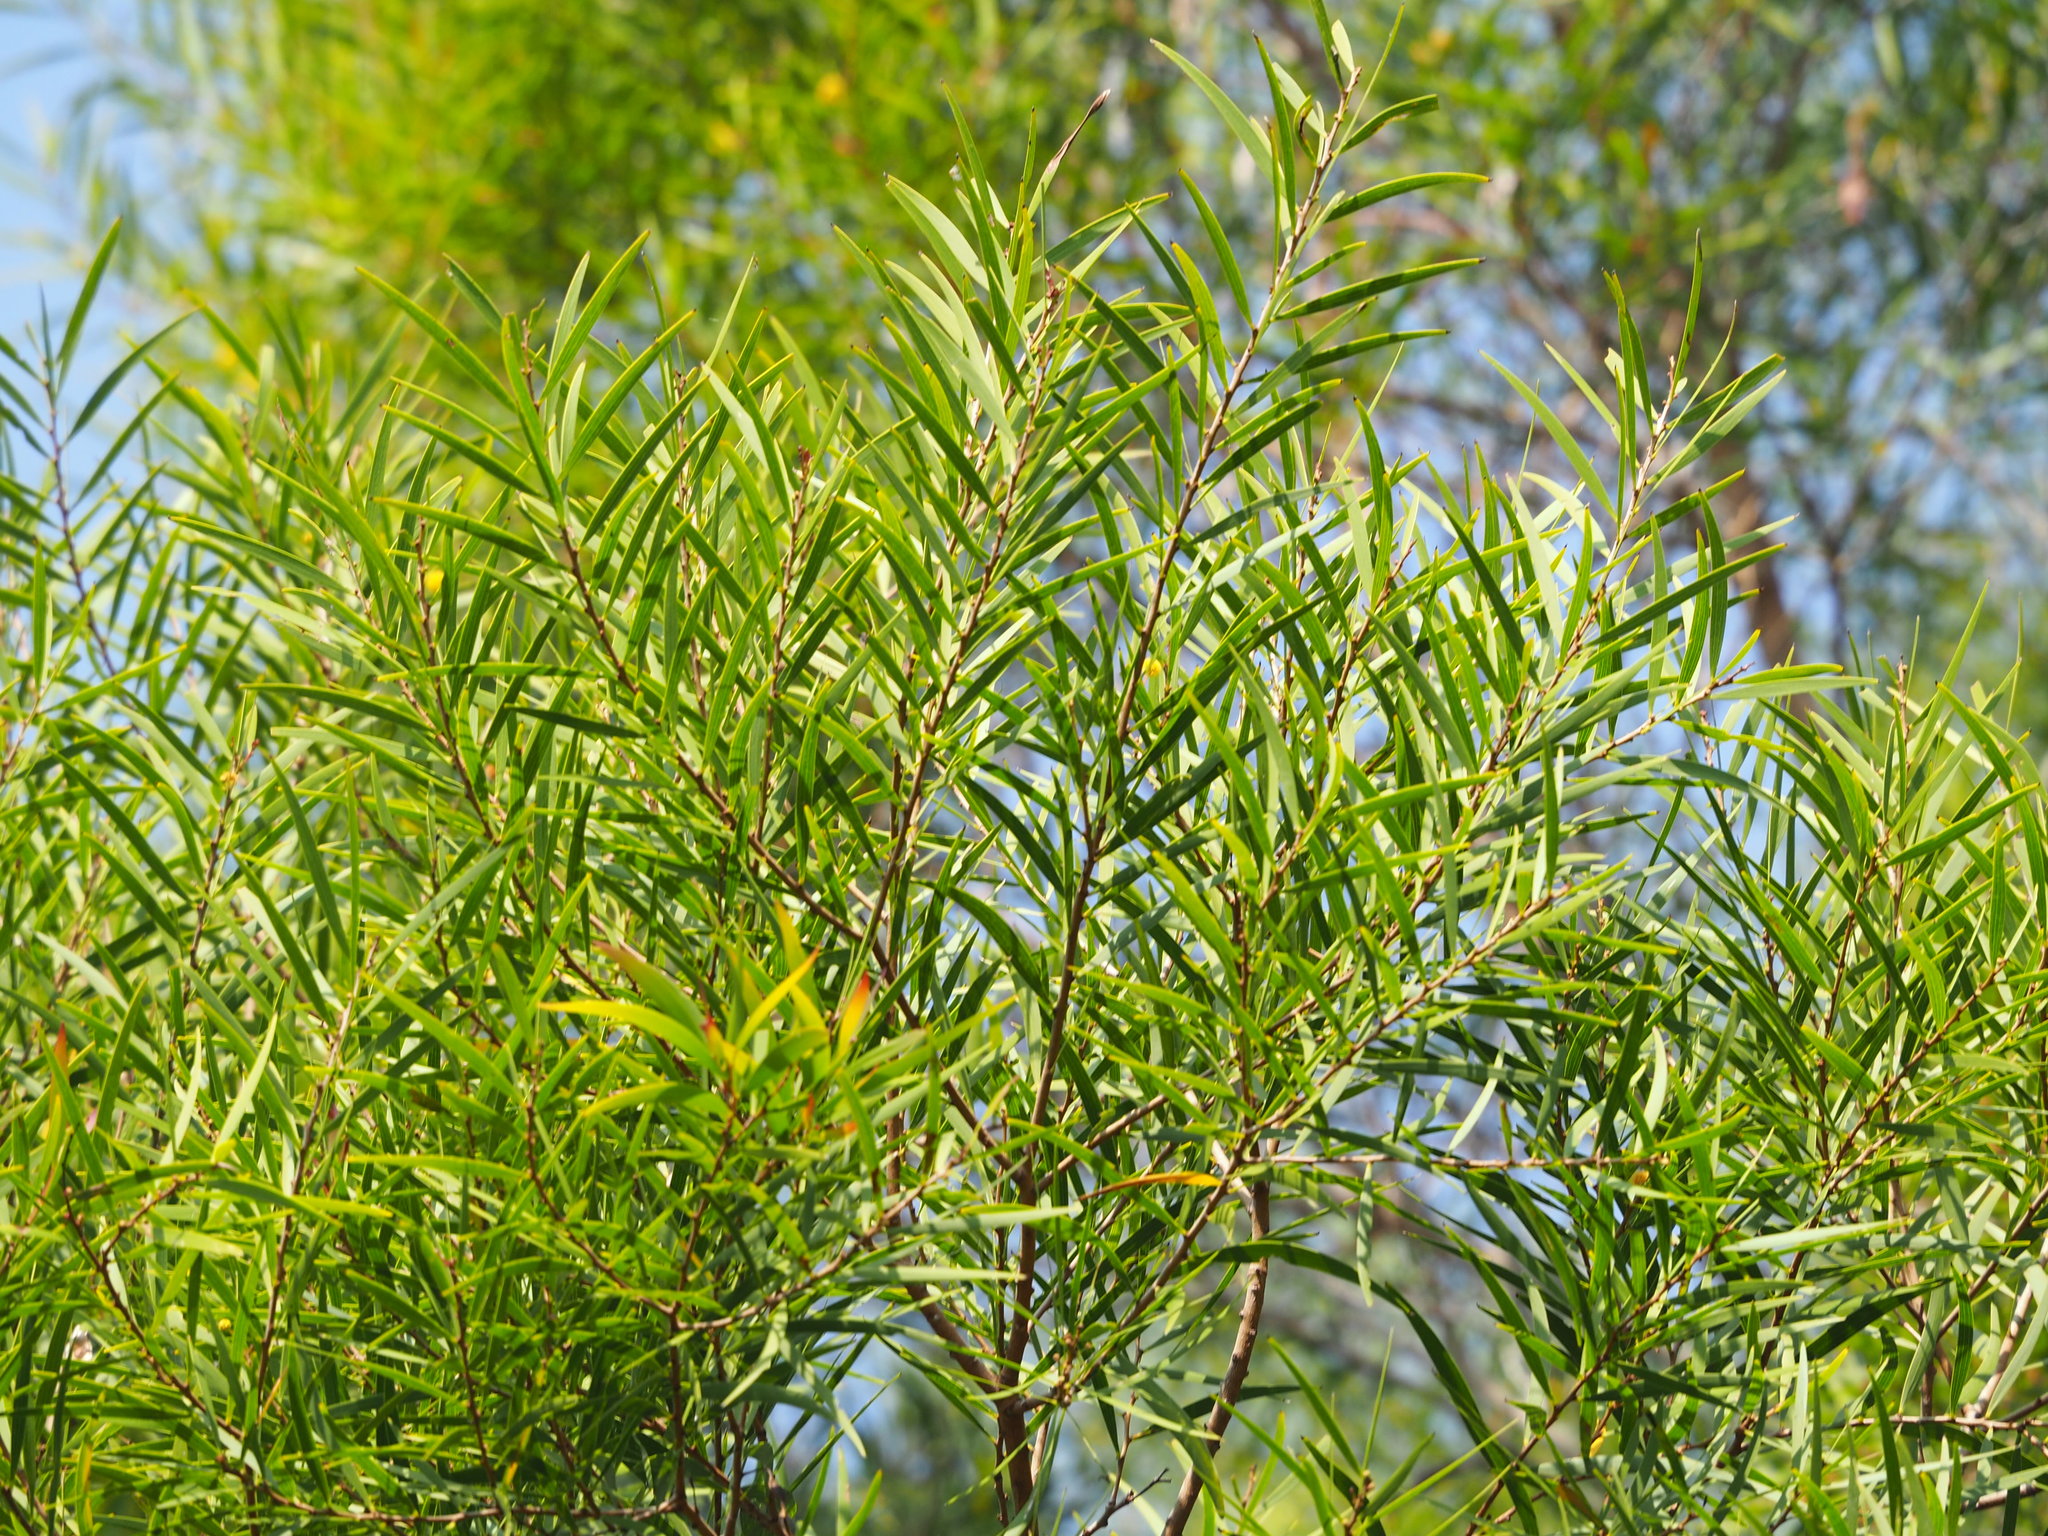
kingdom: Plantae
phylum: Tracheophyta
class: Magnoliopsida
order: Fabales
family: Fabaceae
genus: Acacia
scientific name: Acacia confusa
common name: Formosan koa
